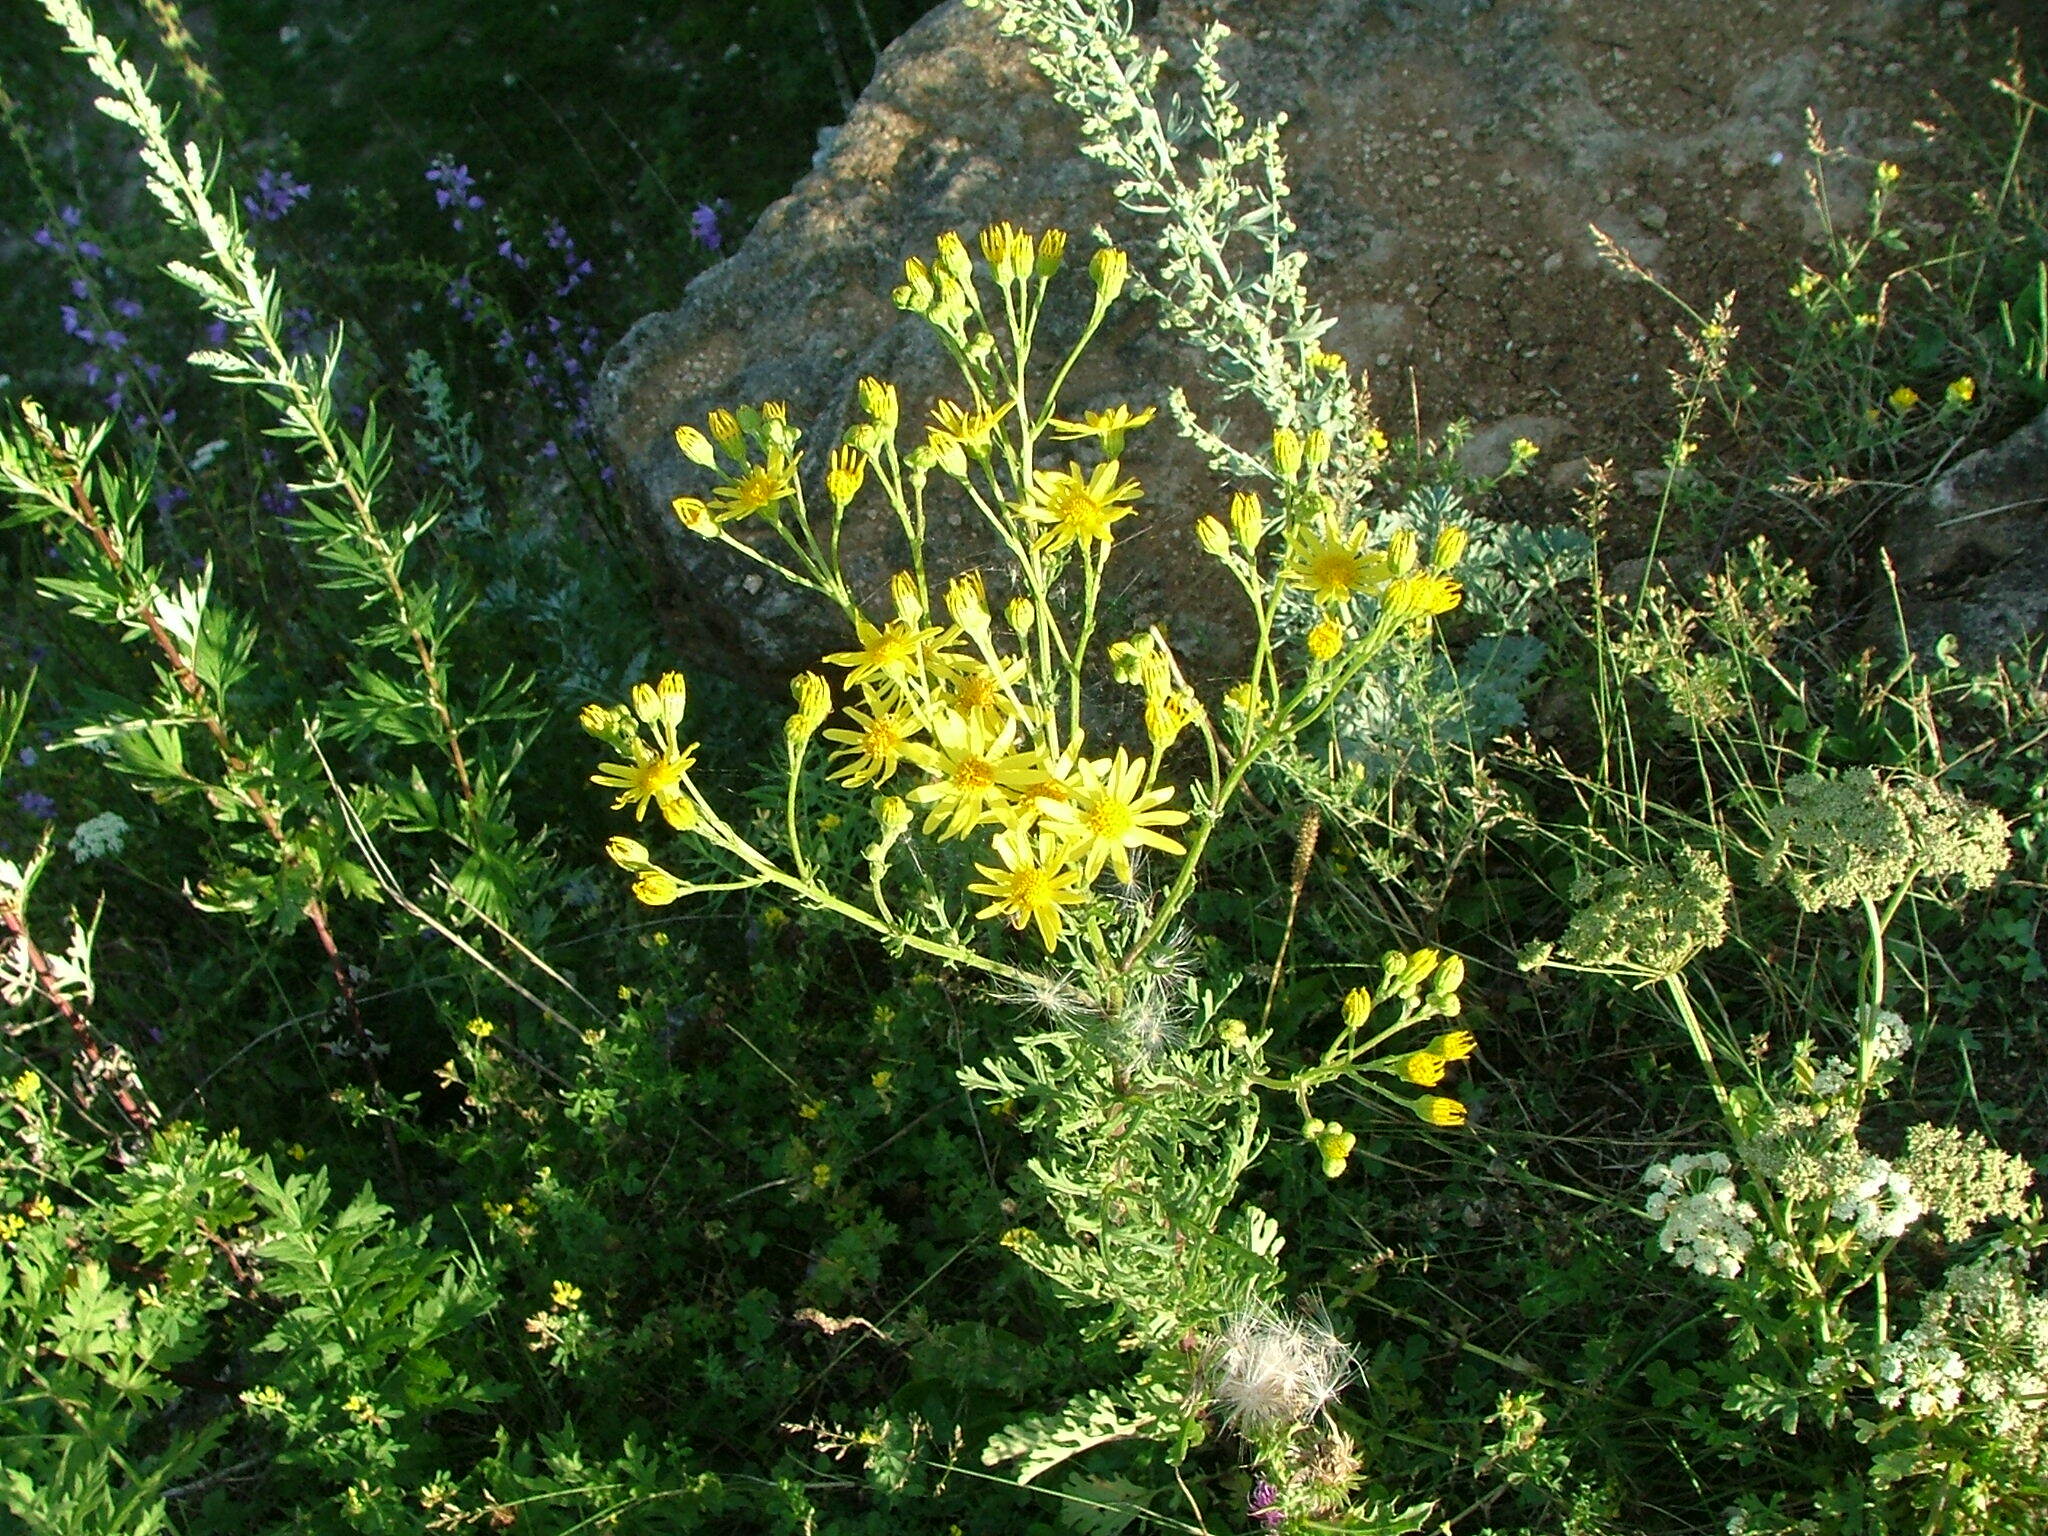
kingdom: Plantae
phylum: Tracheophyta
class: Magnoliopsida
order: Asterales
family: Asteraceae
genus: Jacobaea
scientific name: Jacobaea vulgaris
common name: Stinking willie
